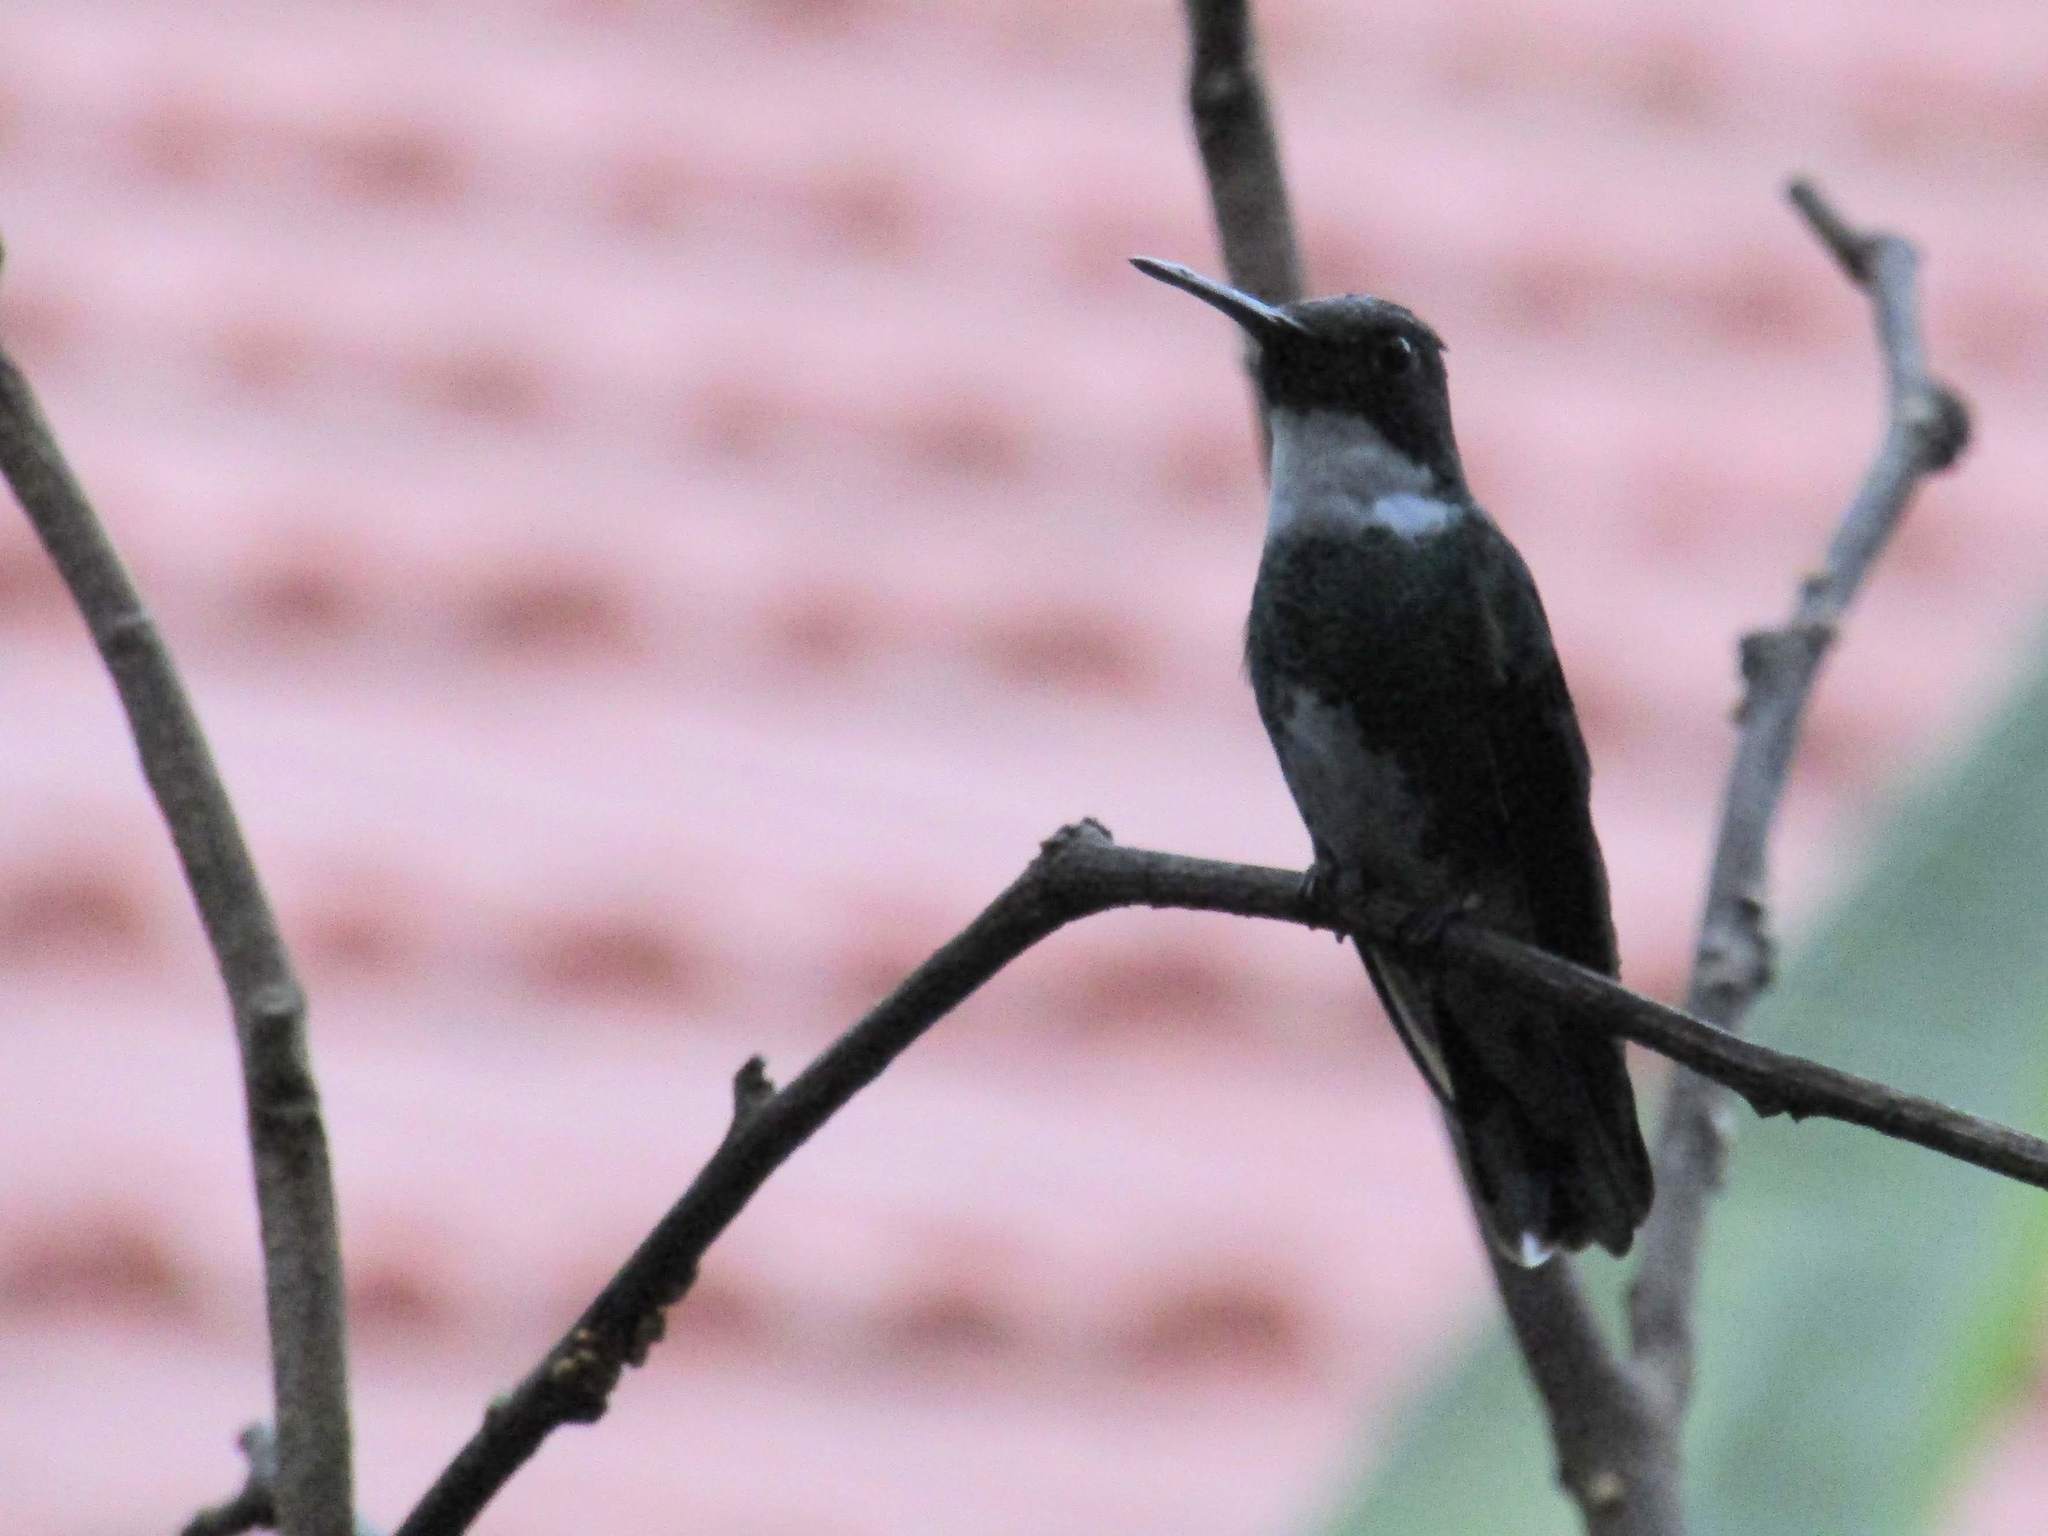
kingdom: Animalia
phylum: Chordata
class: Aves
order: Apodiformes
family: Trochilidae
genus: Leucochloris
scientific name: Leucochloris albicollis
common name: White-throated hummingbird
